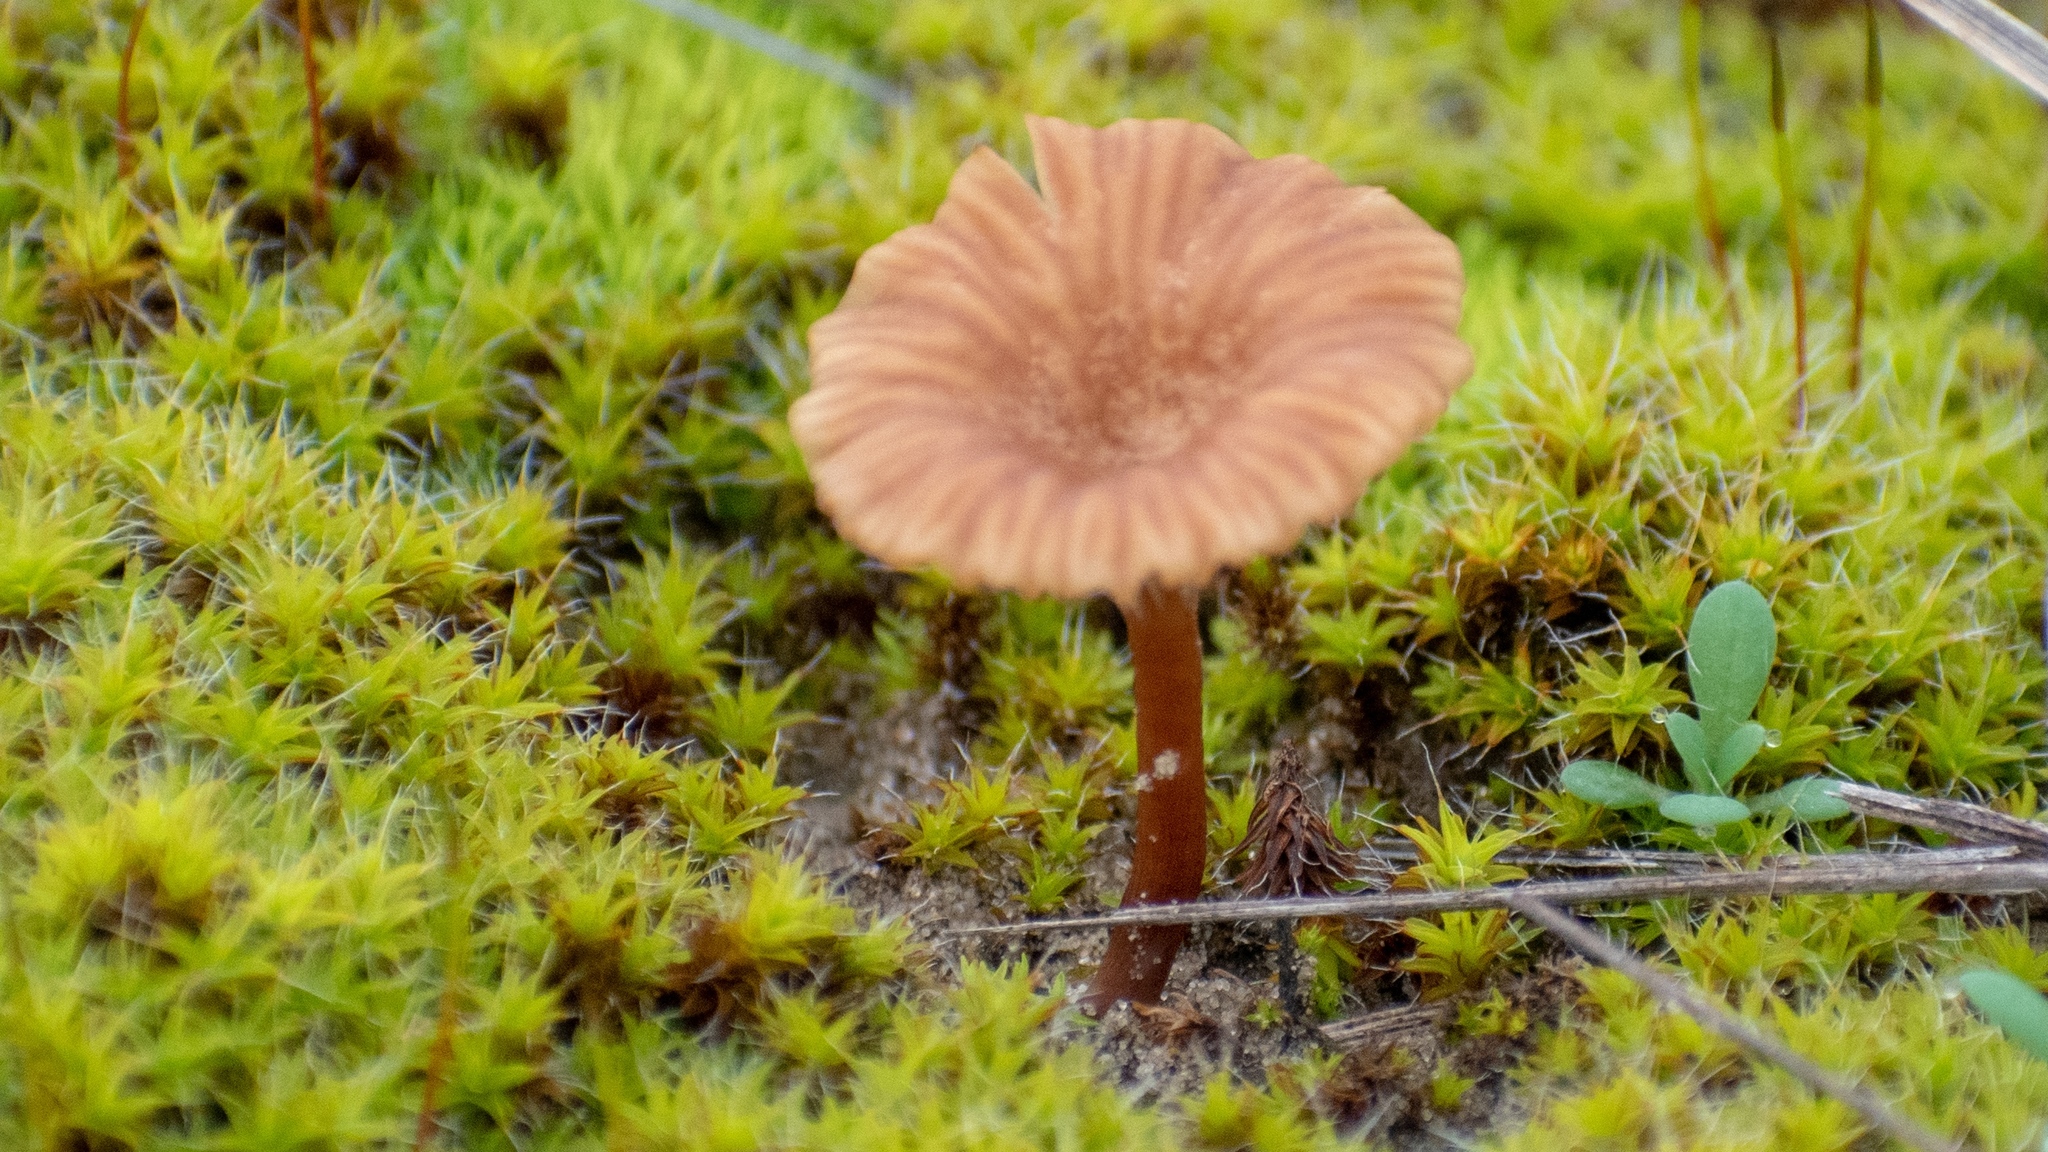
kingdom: Fungi
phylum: Basidiomycota
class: Agaricomycetes
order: Agaricales
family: Tricholomataceae
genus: Omphalina
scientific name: Omphalina pyxidata
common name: Cinnamon navel
